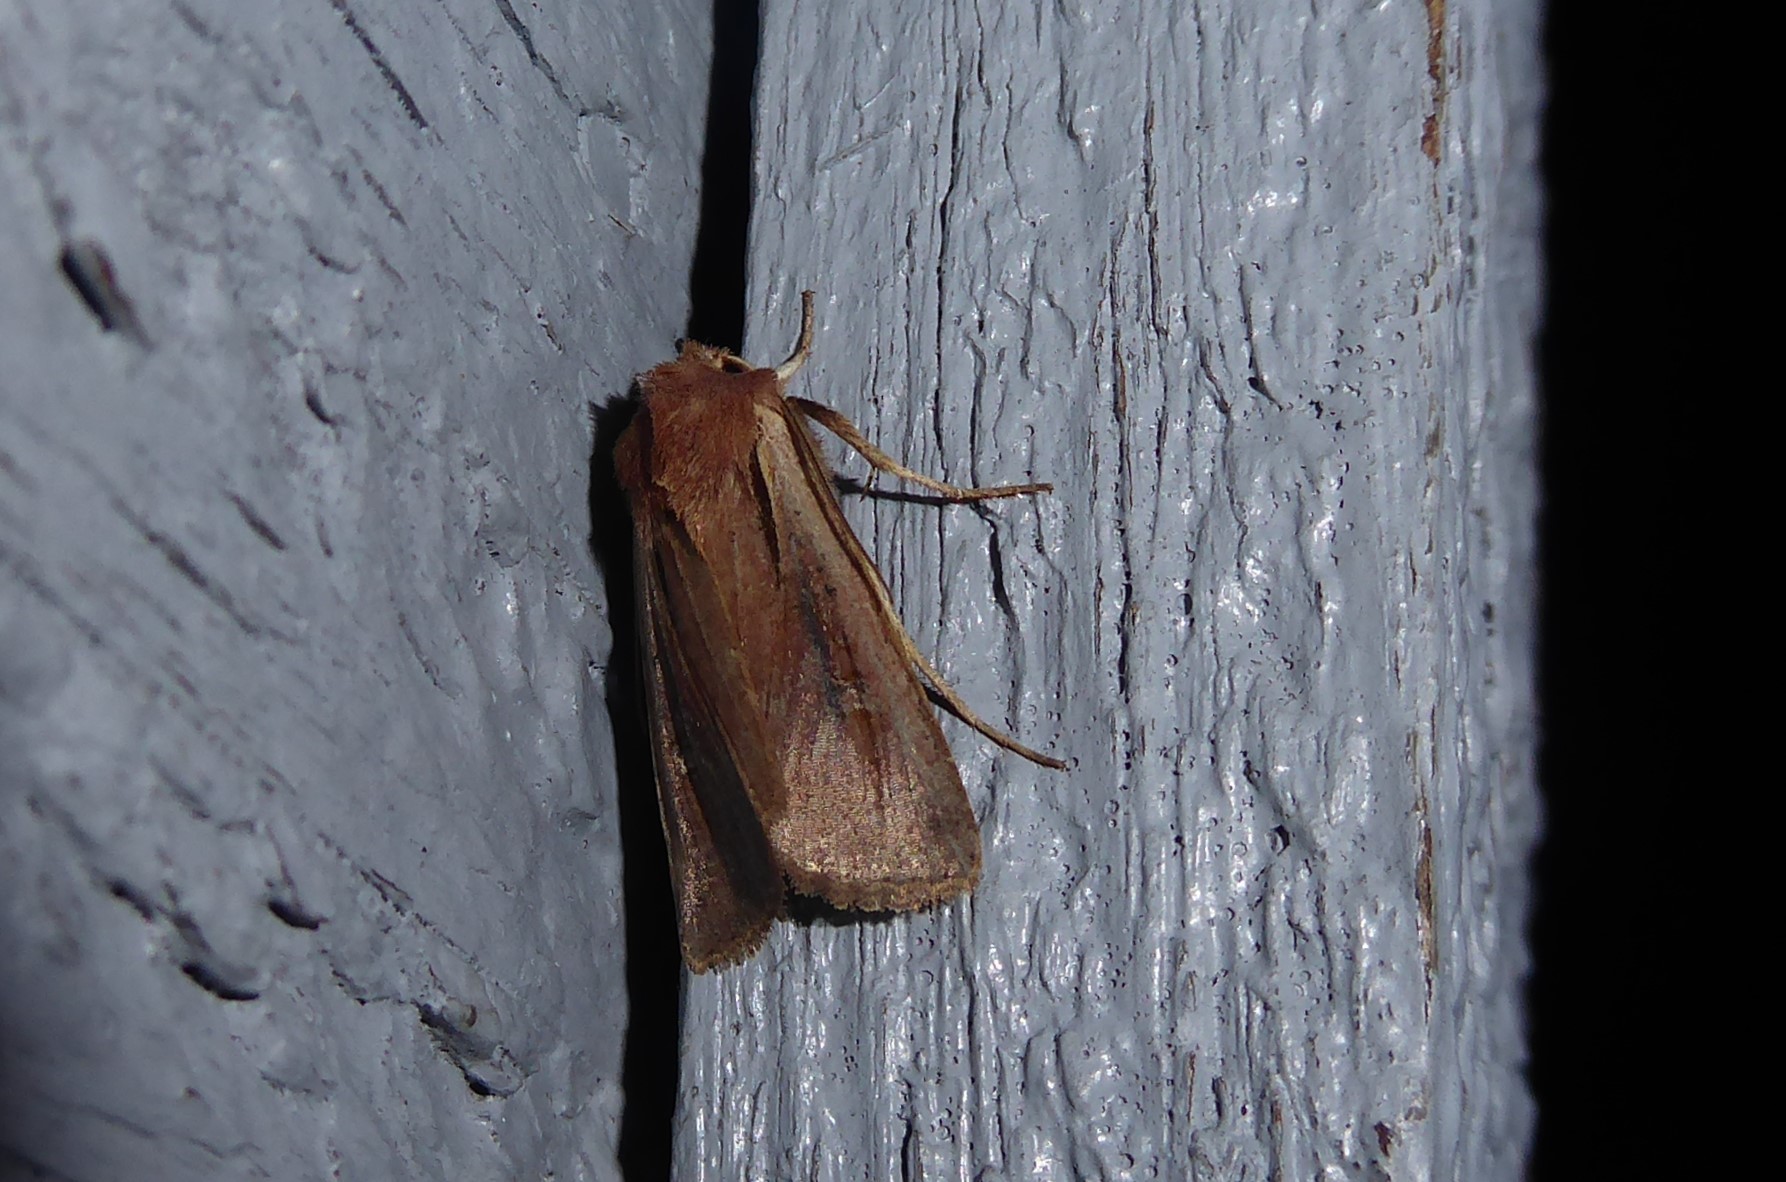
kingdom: Animalia
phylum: Arthropoda
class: Insecta
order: Lepidoptera
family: Noctuidae
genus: Ichneutica
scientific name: Ichneutica atristriga
